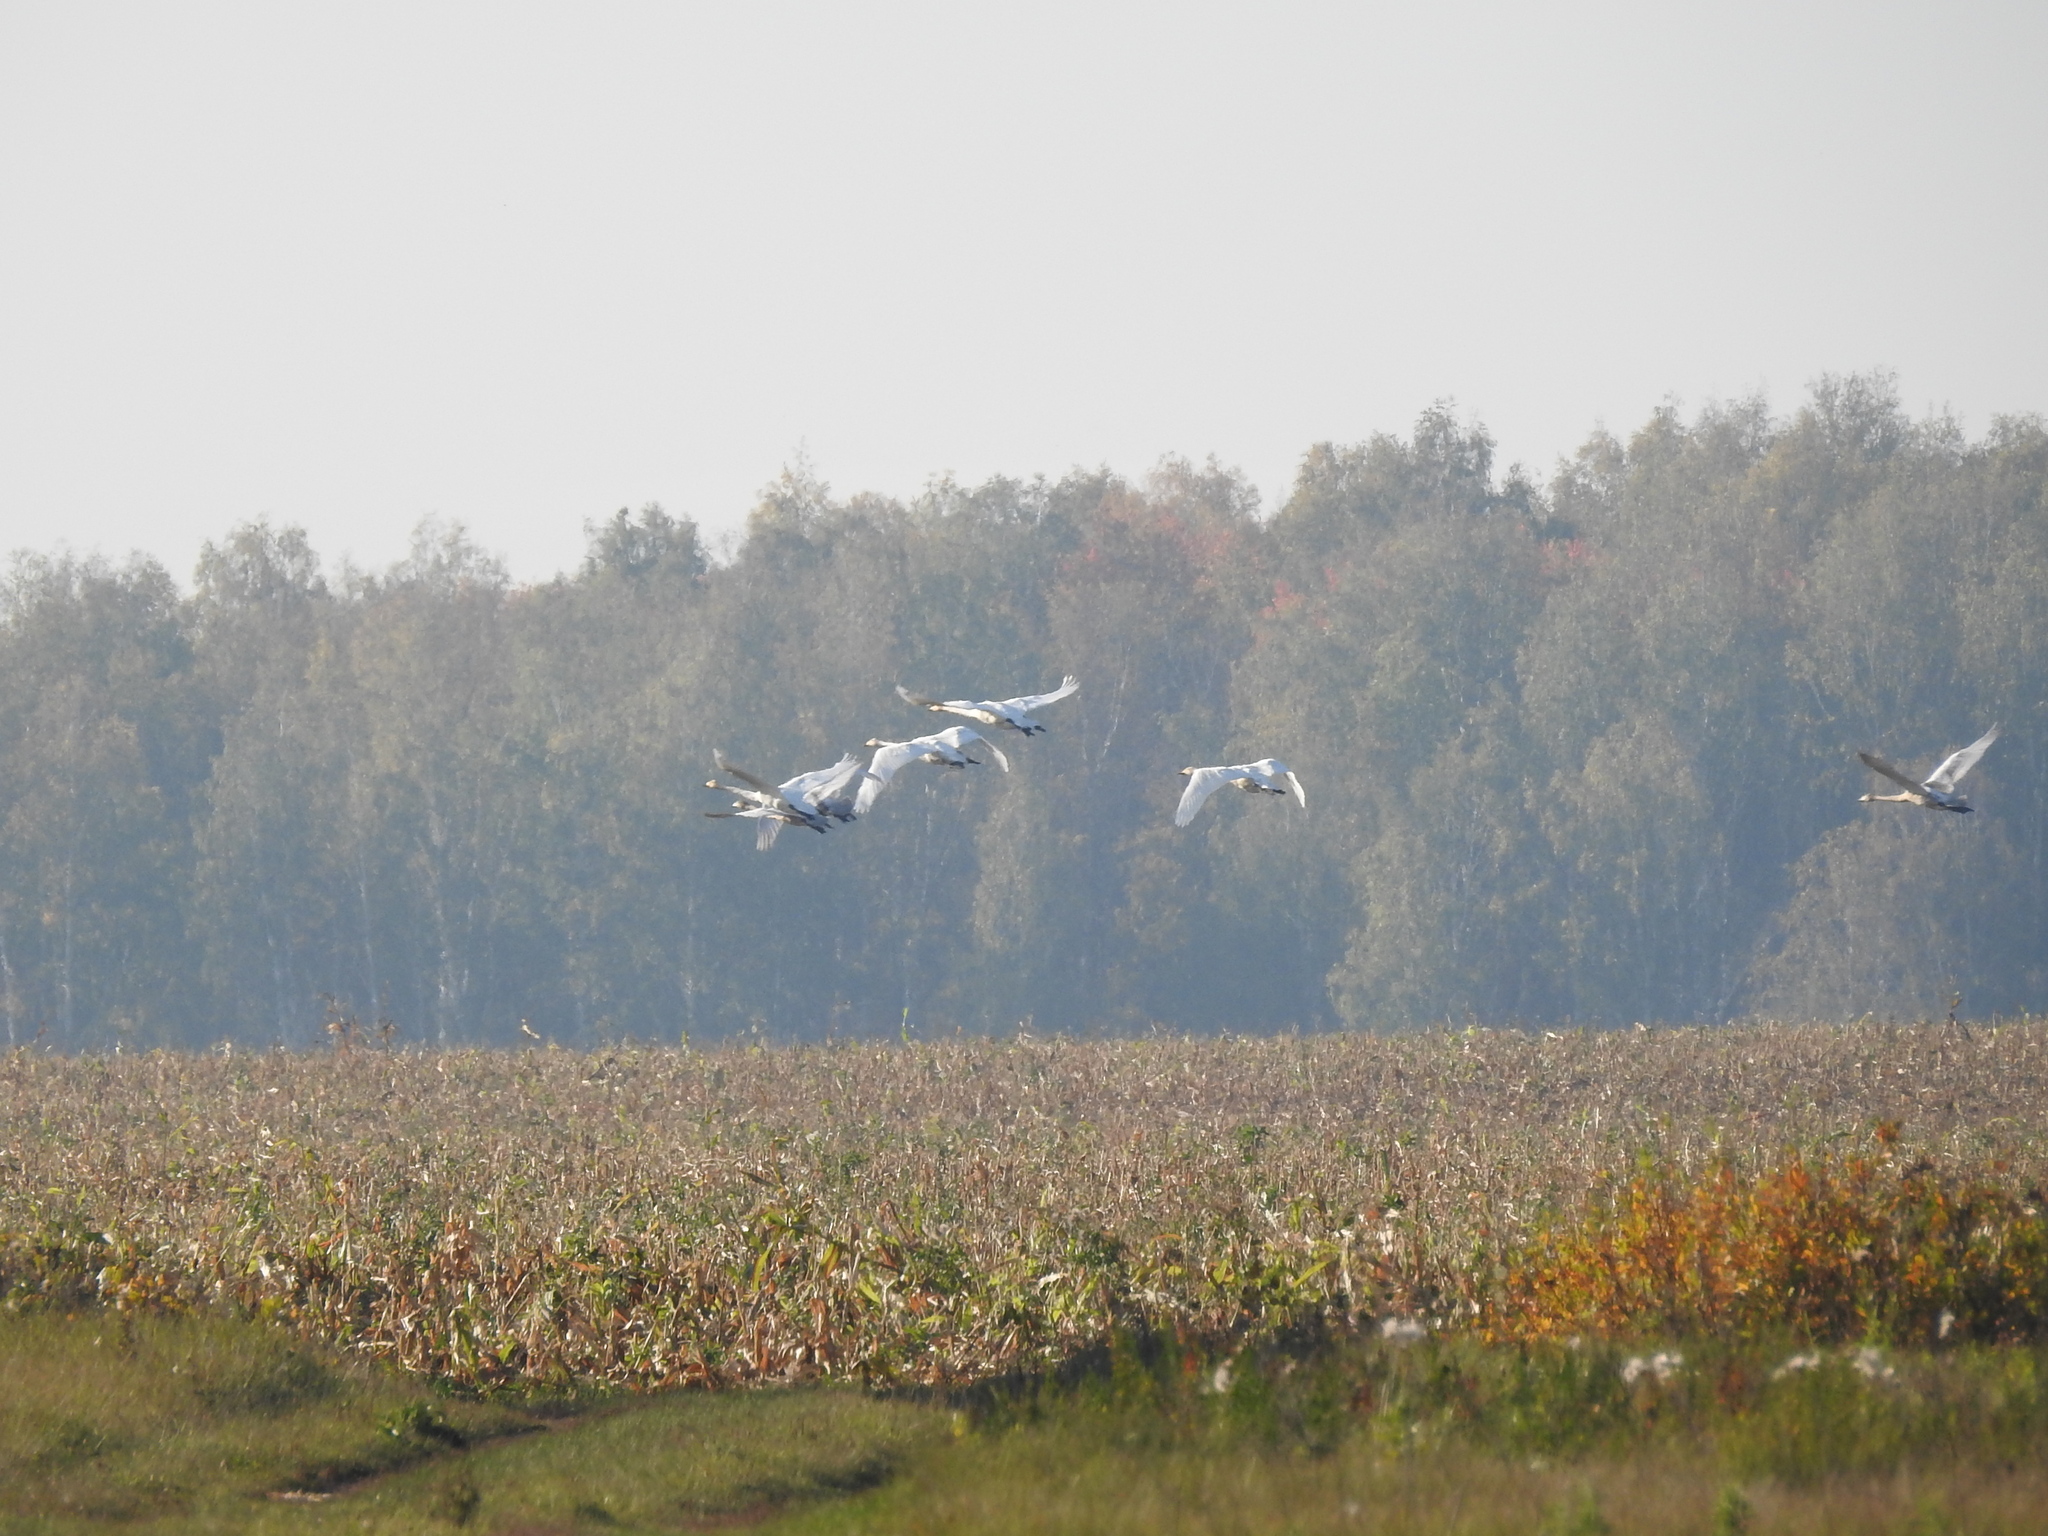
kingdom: Animalia
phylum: Chordata
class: Aves
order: Anseriformes
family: Anatidae
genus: Cygnus
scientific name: Cygnus cygnus
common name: Whooper swan
